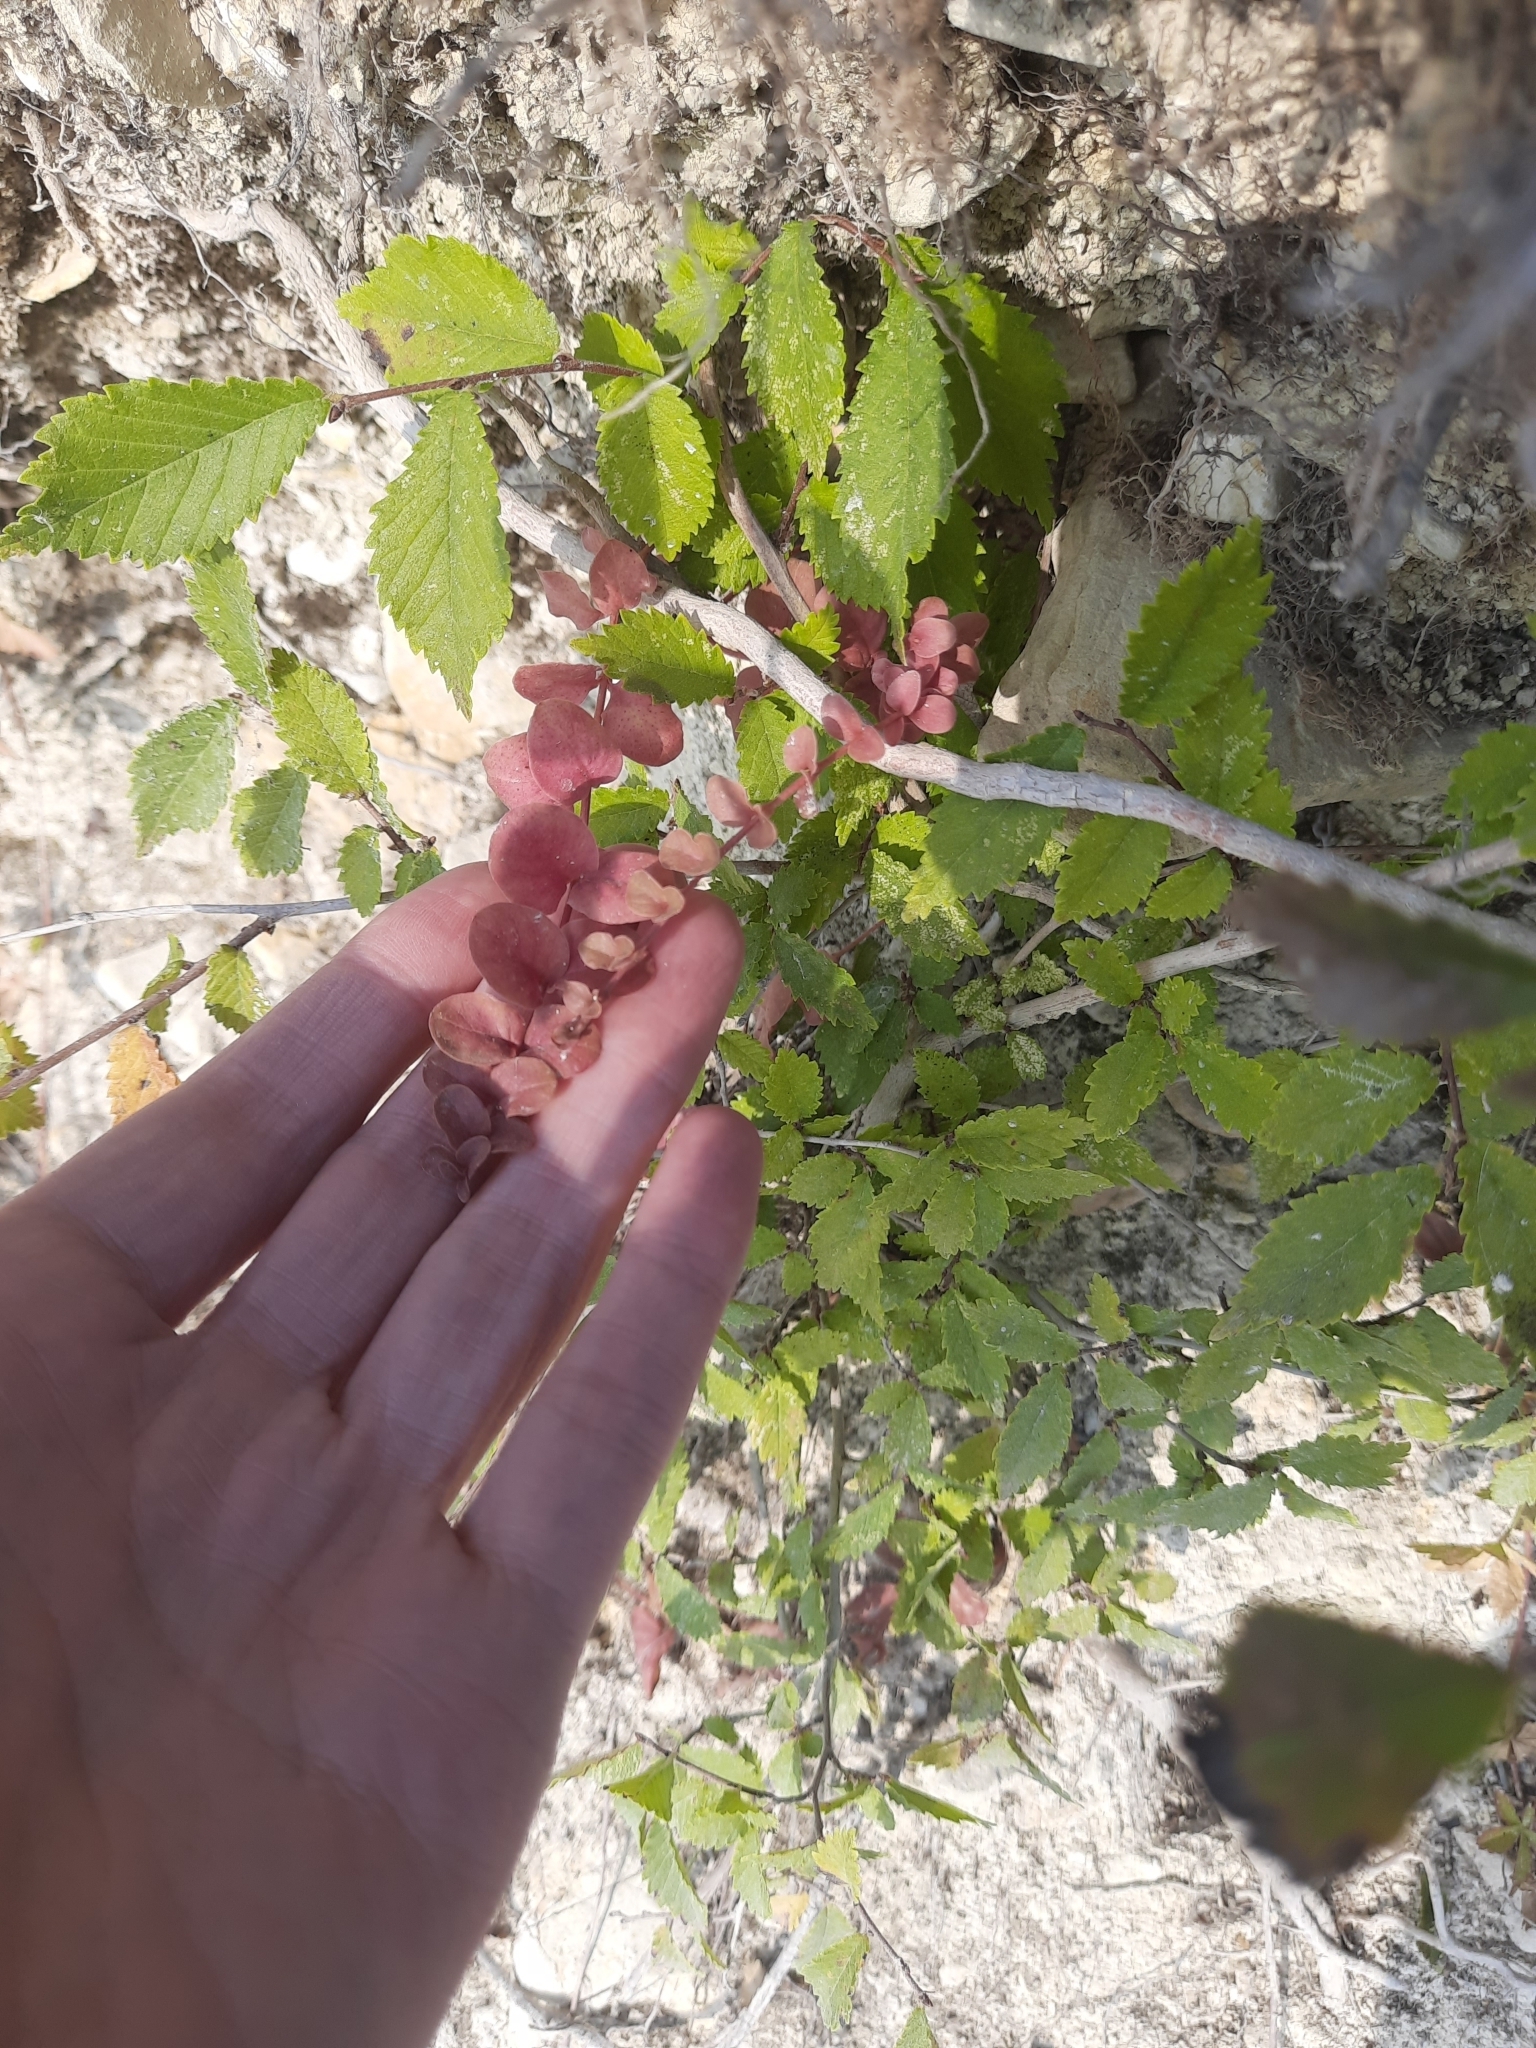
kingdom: Plantae
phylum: Tracheophyta
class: Magnoliopsida
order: Ericales
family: Primulaceae
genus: Lysimachia
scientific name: Lysimachia nummularia
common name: Moneywort
